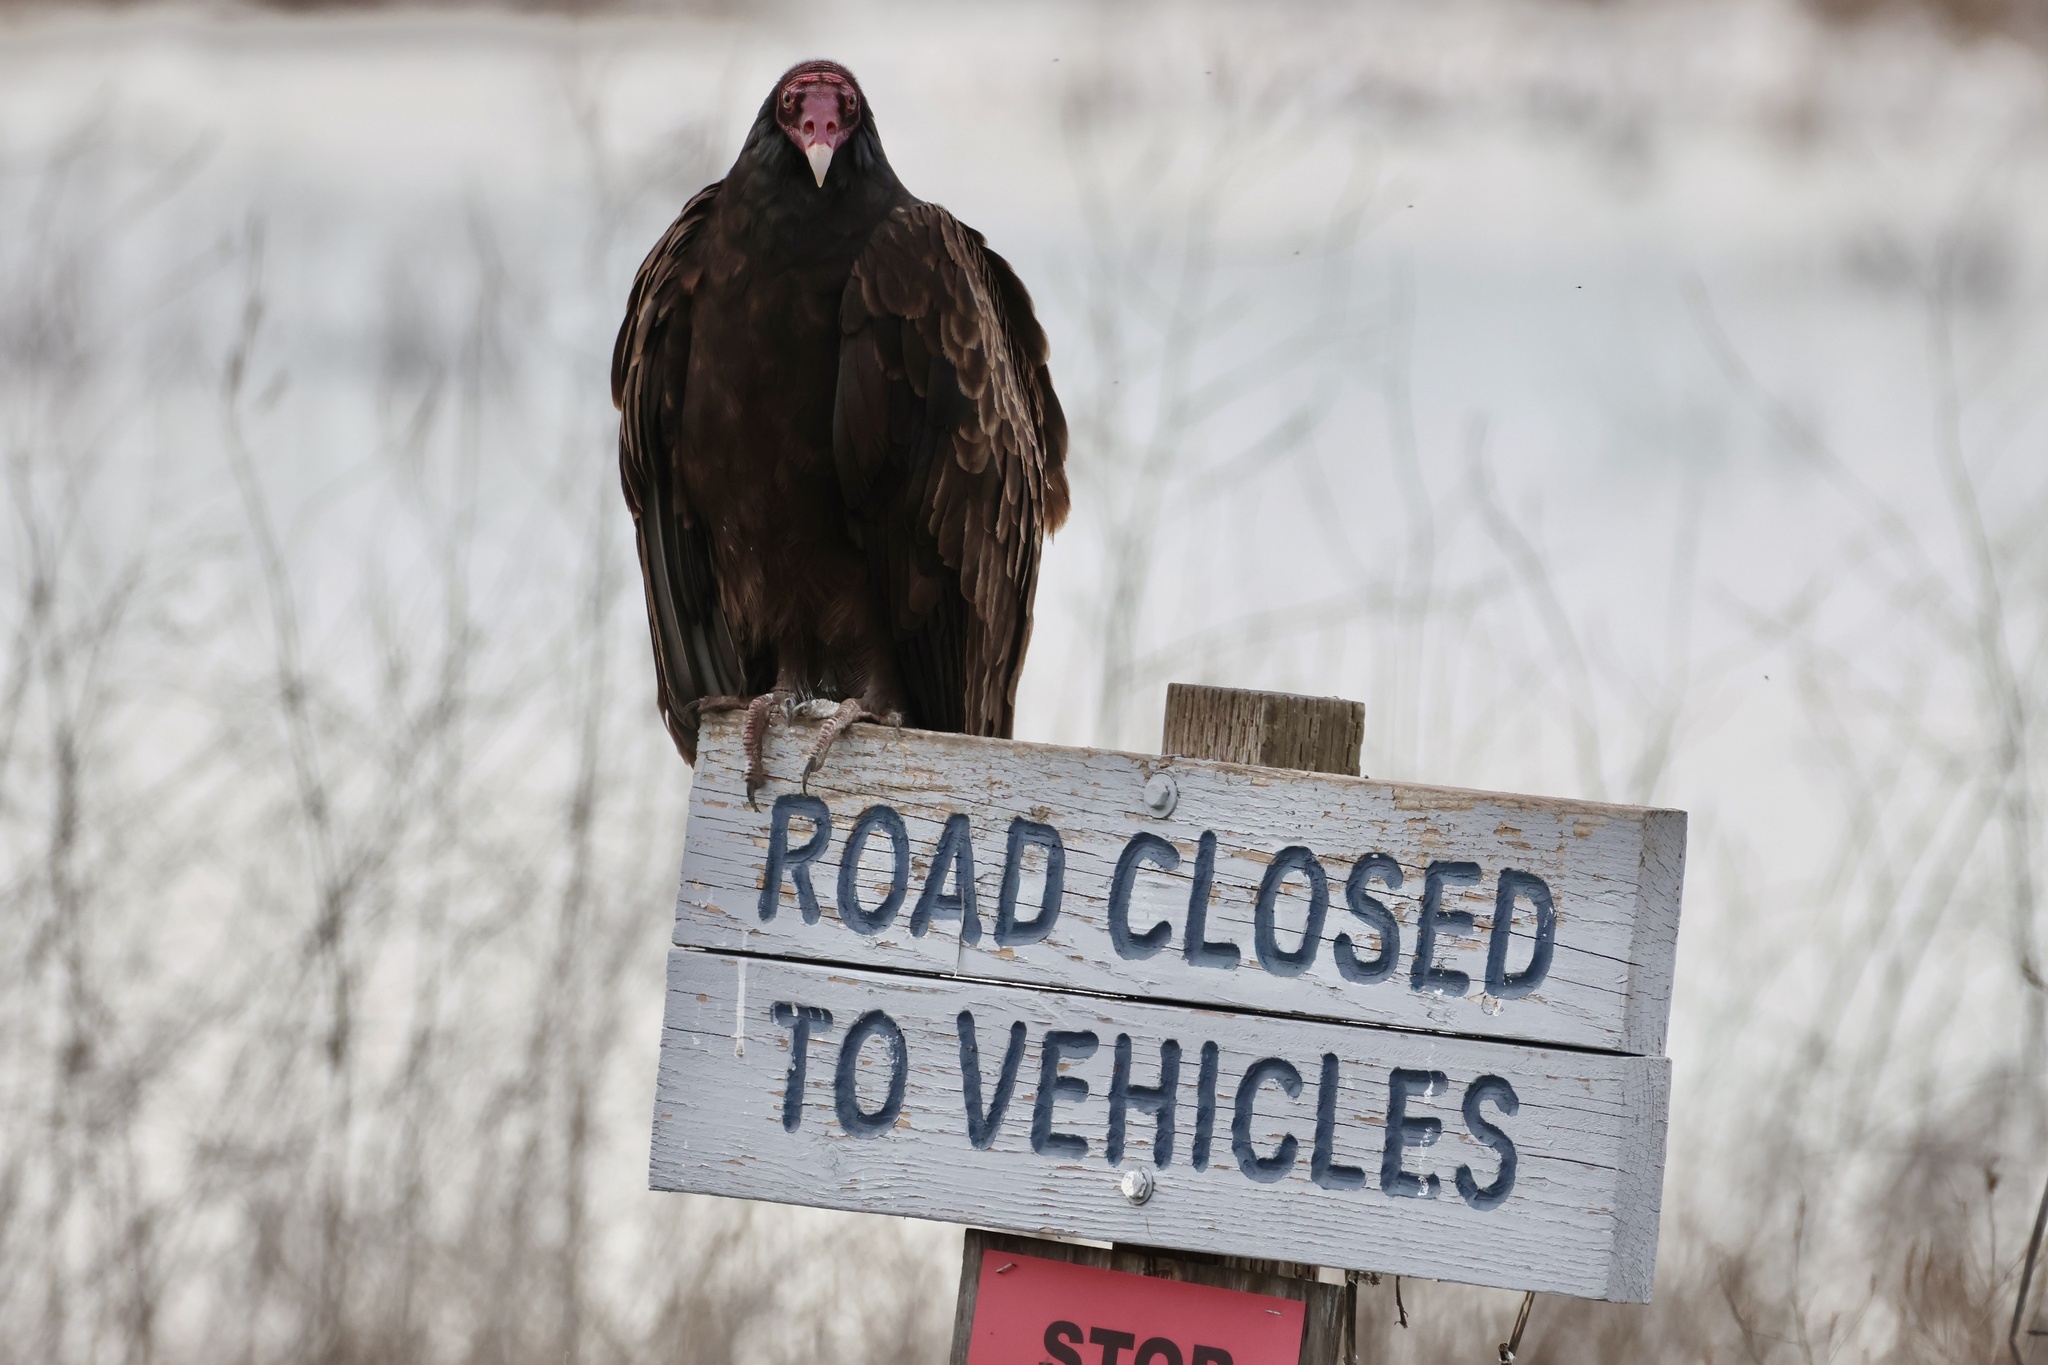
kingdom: Animalia
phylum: Chordata
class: Aves
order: Accipitriformes
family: Cathartidae
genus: Cathartes
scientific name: Cathartes aura
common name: Turkey vulture
